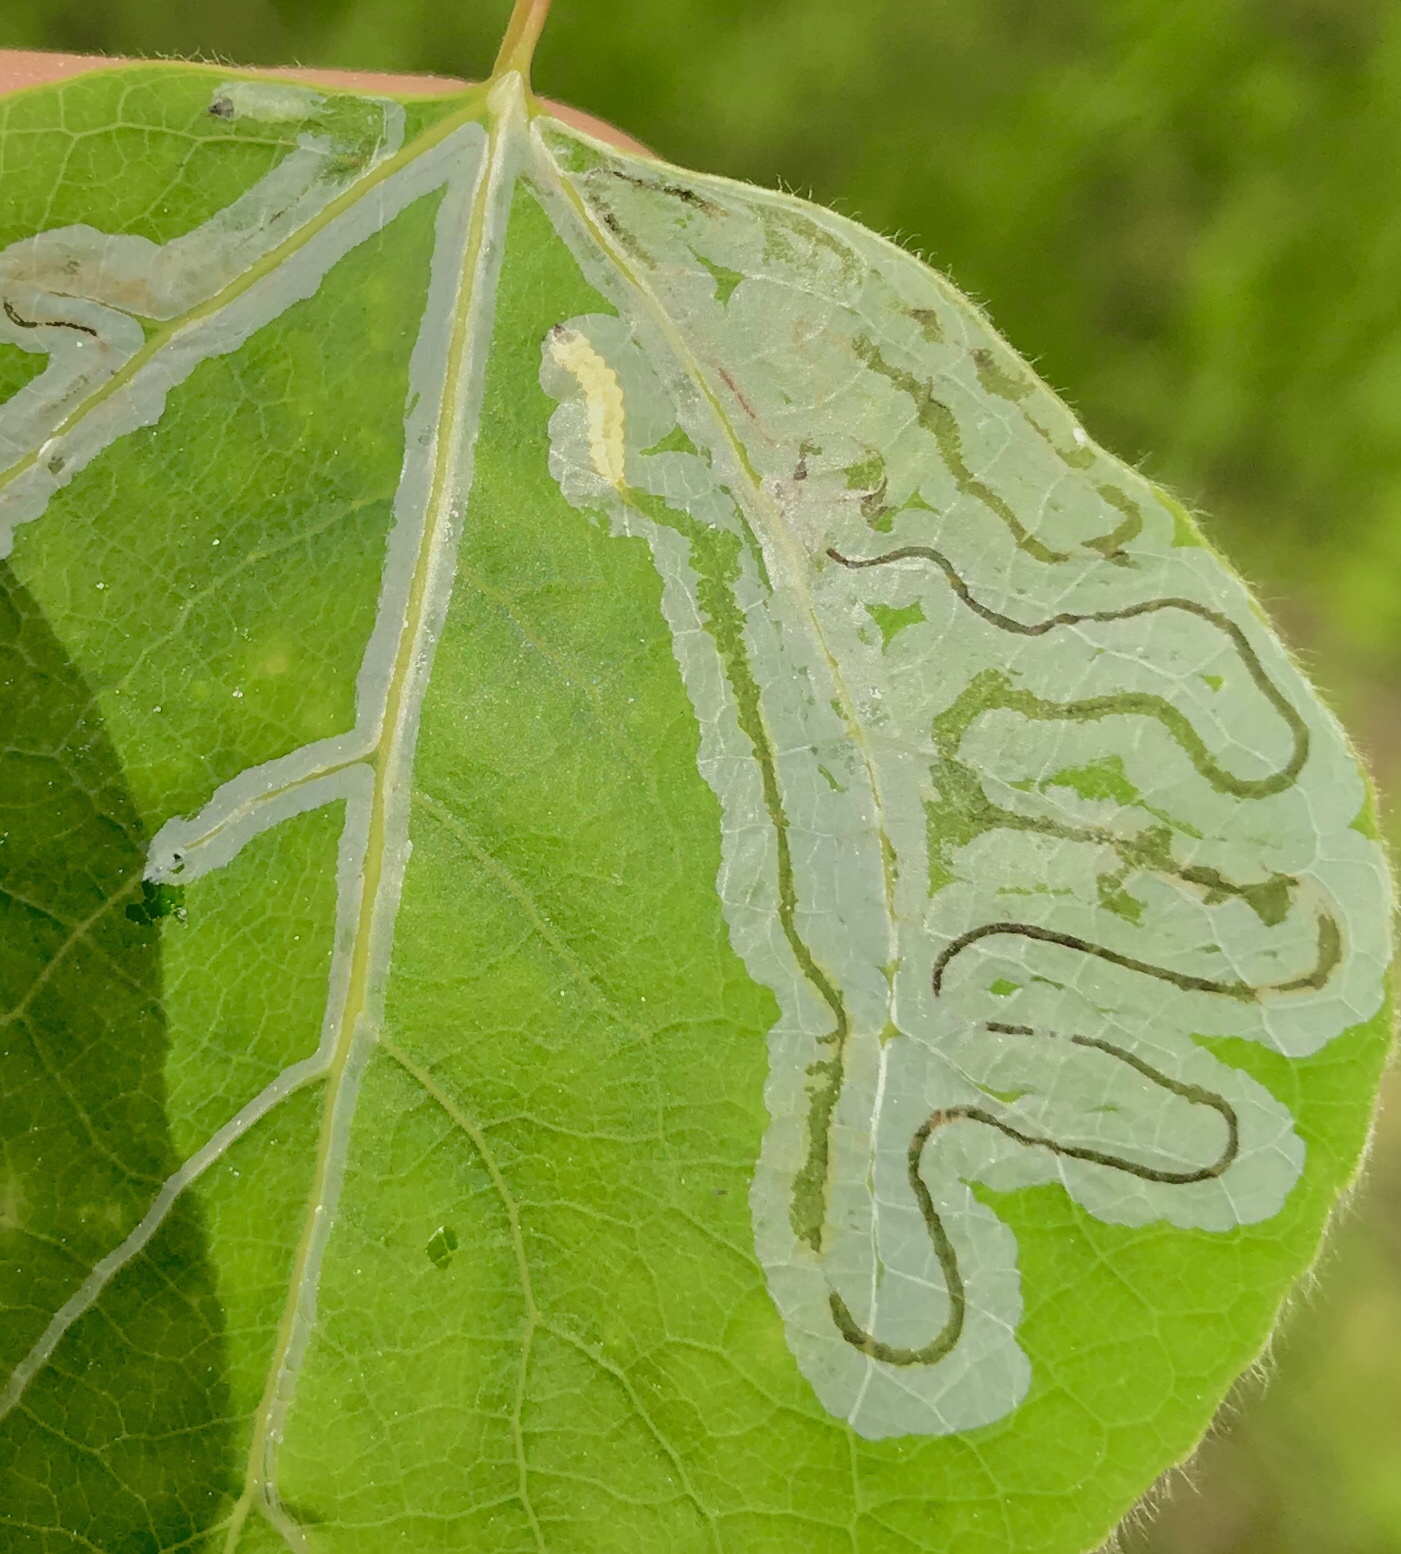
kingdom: Animalia
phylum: Arthropoda
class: Insecta
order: Lepidoptera
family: Gracillariidae
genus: Phyllocnistis
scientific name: Phyllocnistis populiella
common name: Aspen serpentine leafminer moth
